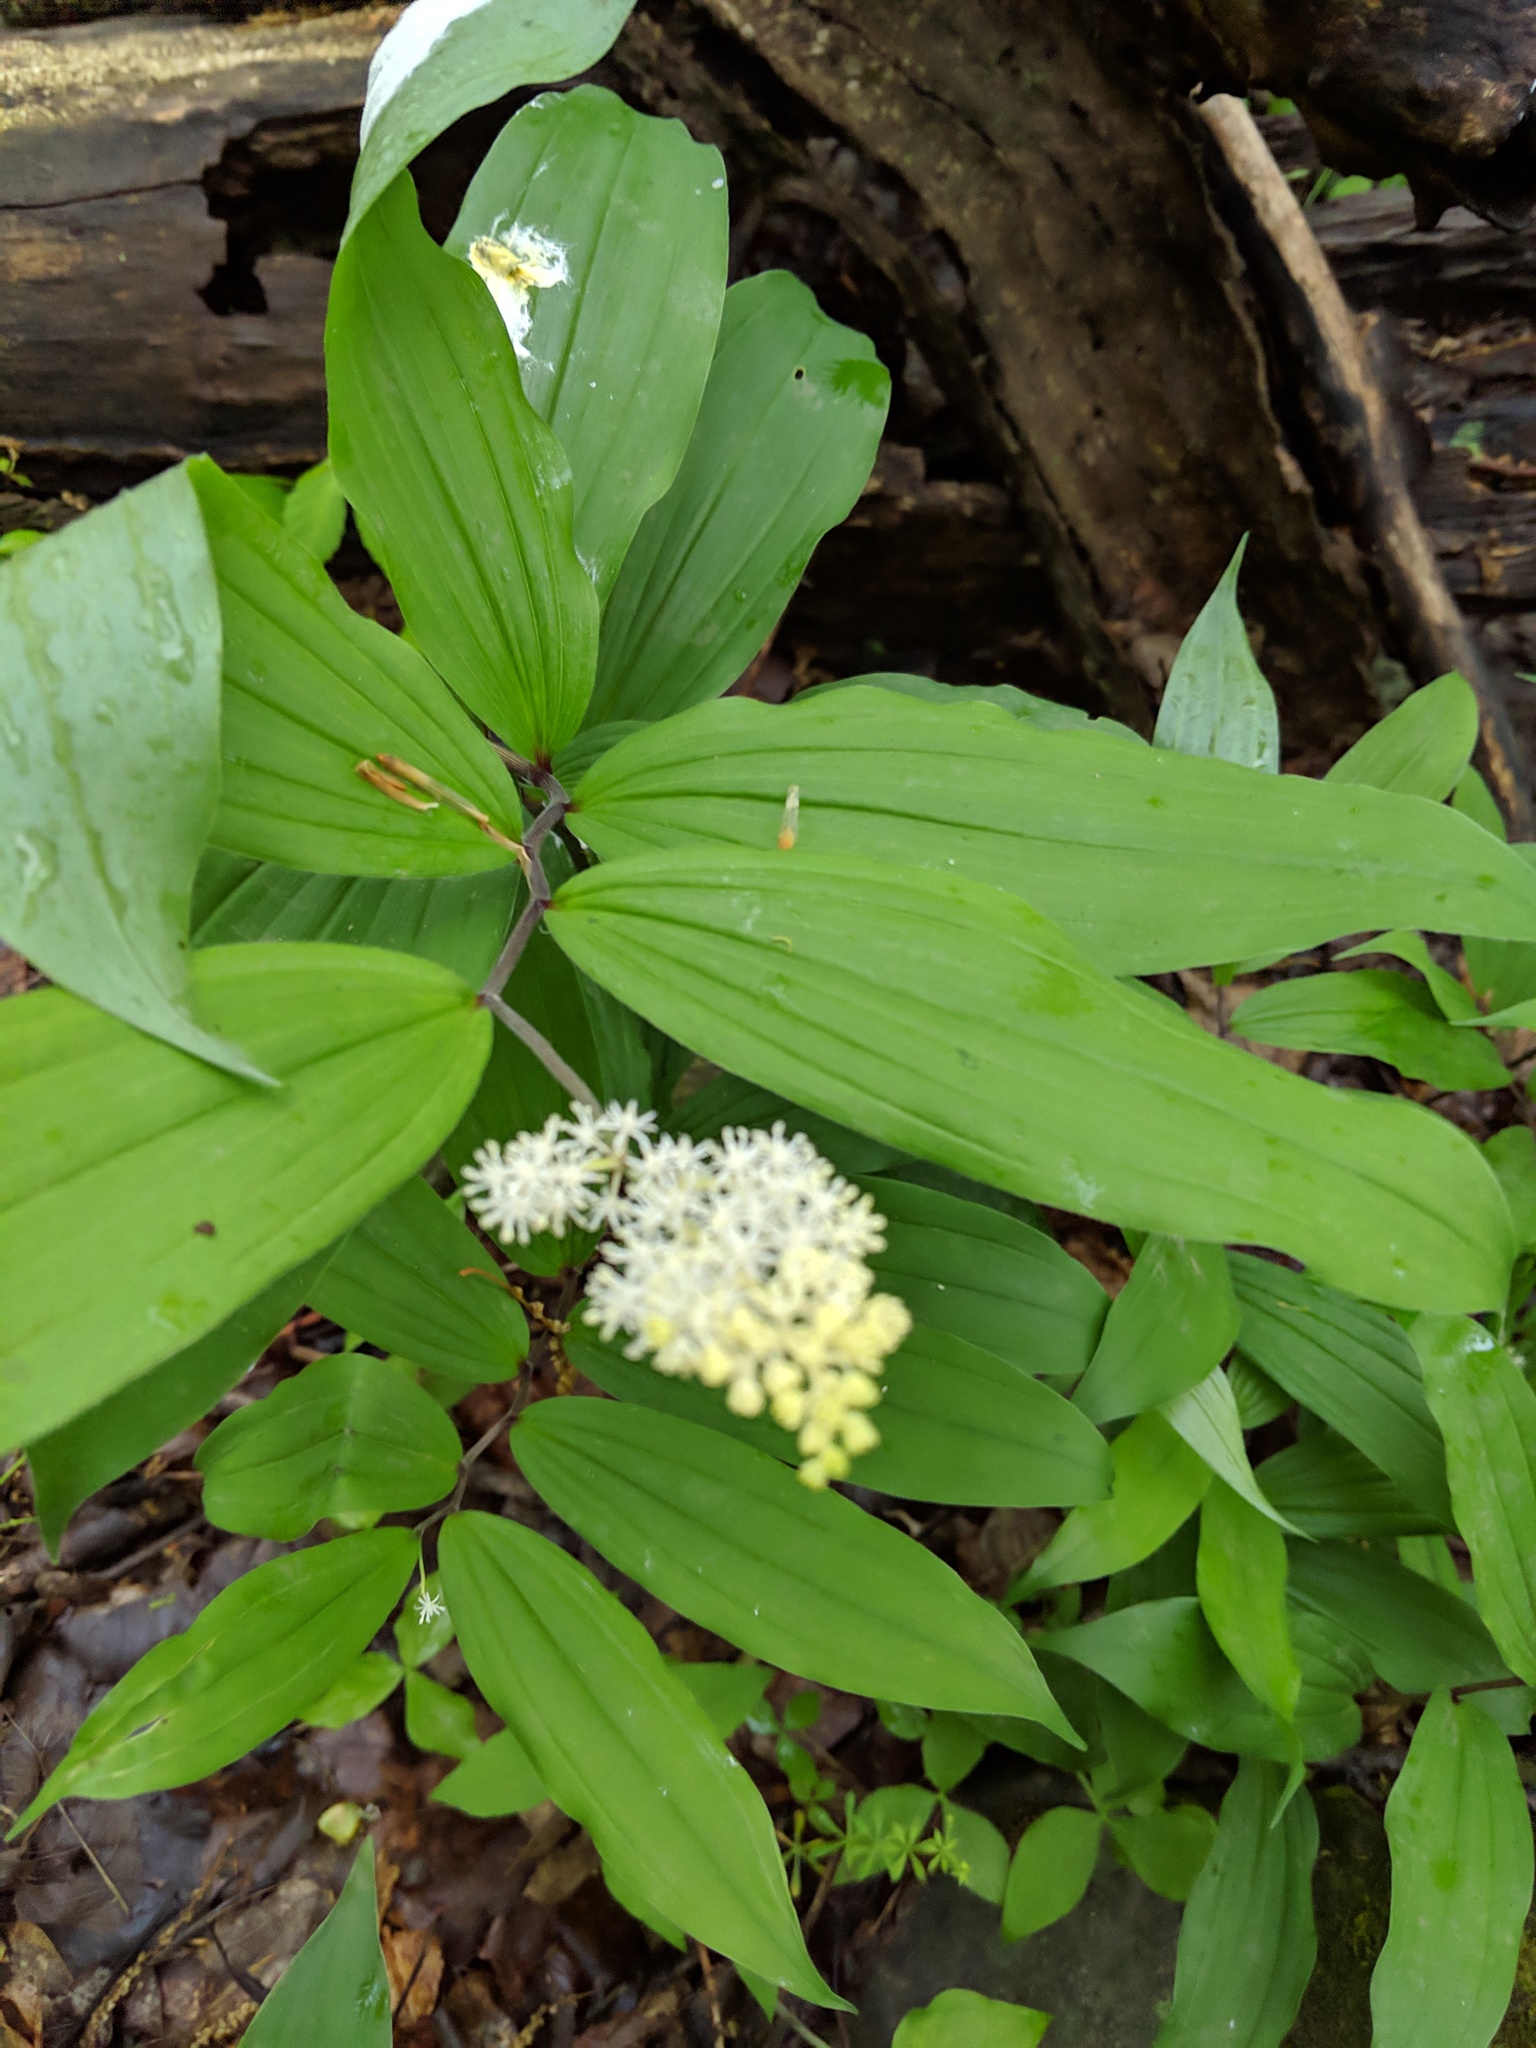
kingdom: Plantae
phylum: Tracheophyta
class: Liliopsida
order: Asparagales
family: Asparagaceae
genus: Maianthemum
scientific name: Maianthemum racemosum
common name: False spikenard
